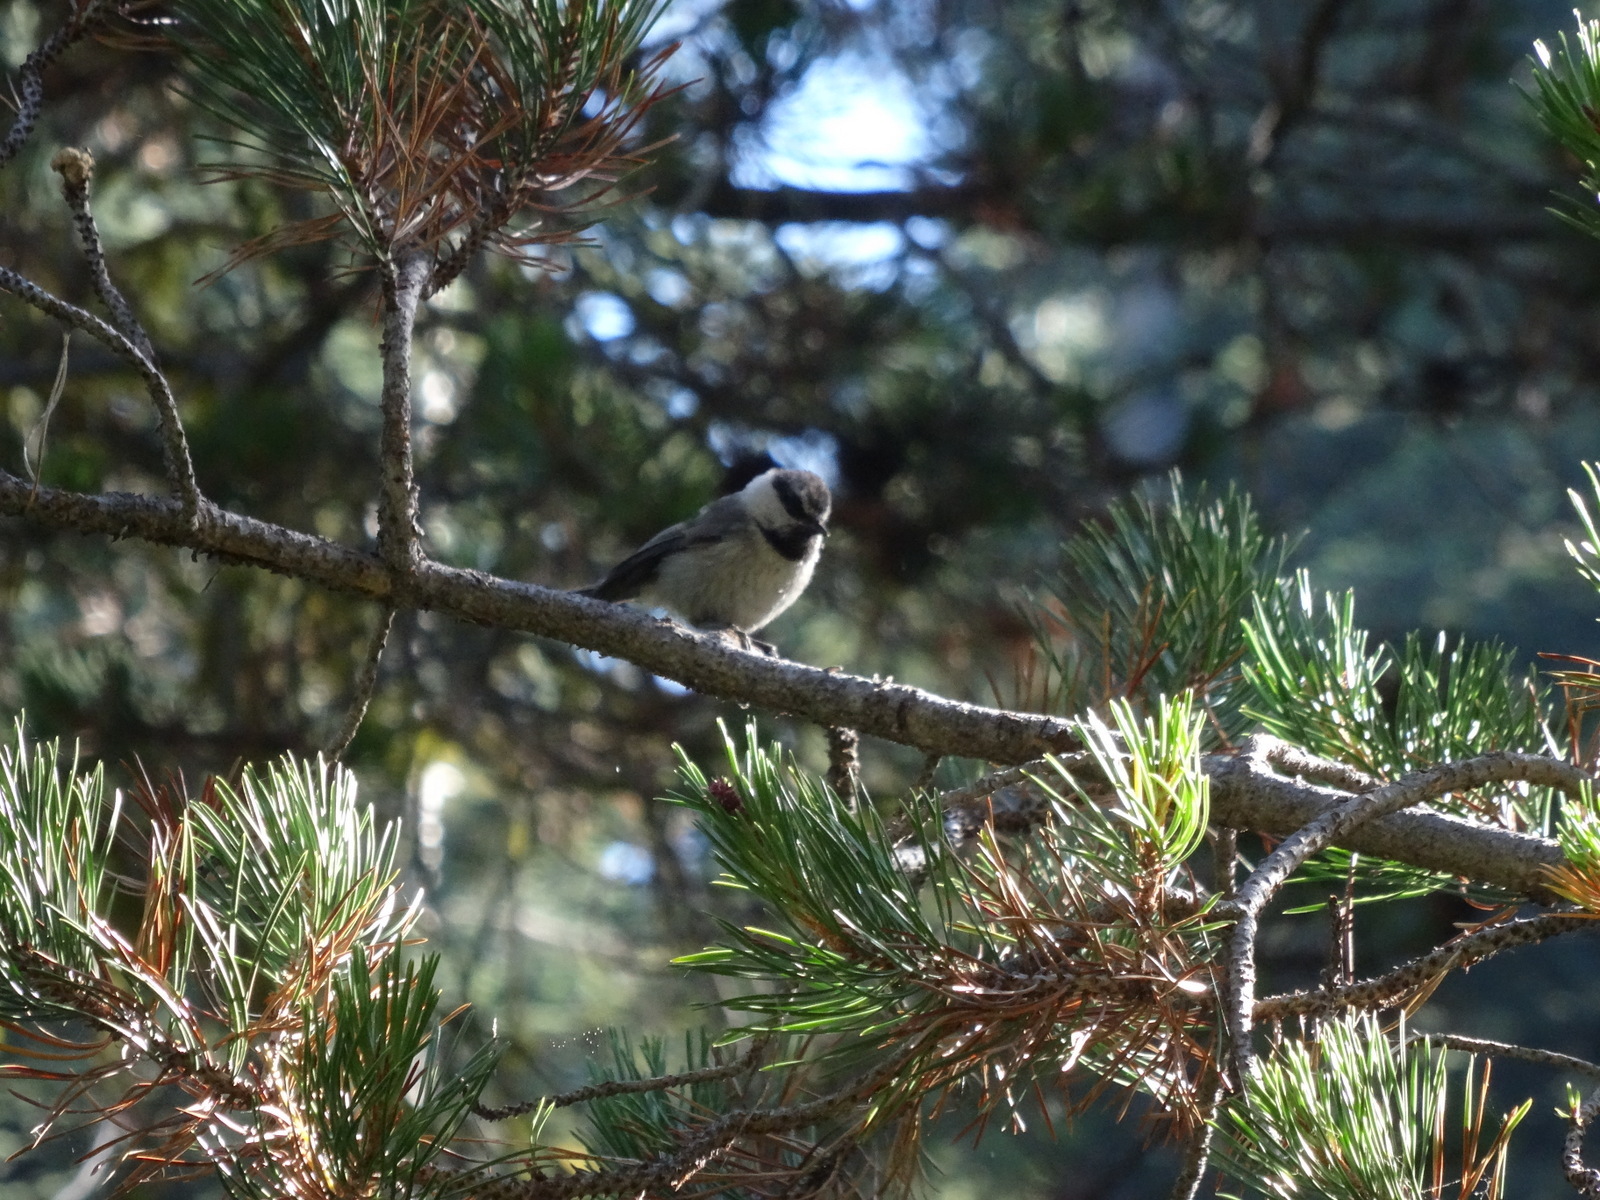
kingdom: Animalia
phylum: Chordata
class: Aves
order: Passeriformes
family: Paridae
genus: Poecile
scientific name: Poecile gambeli
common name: Mountain chickadee
